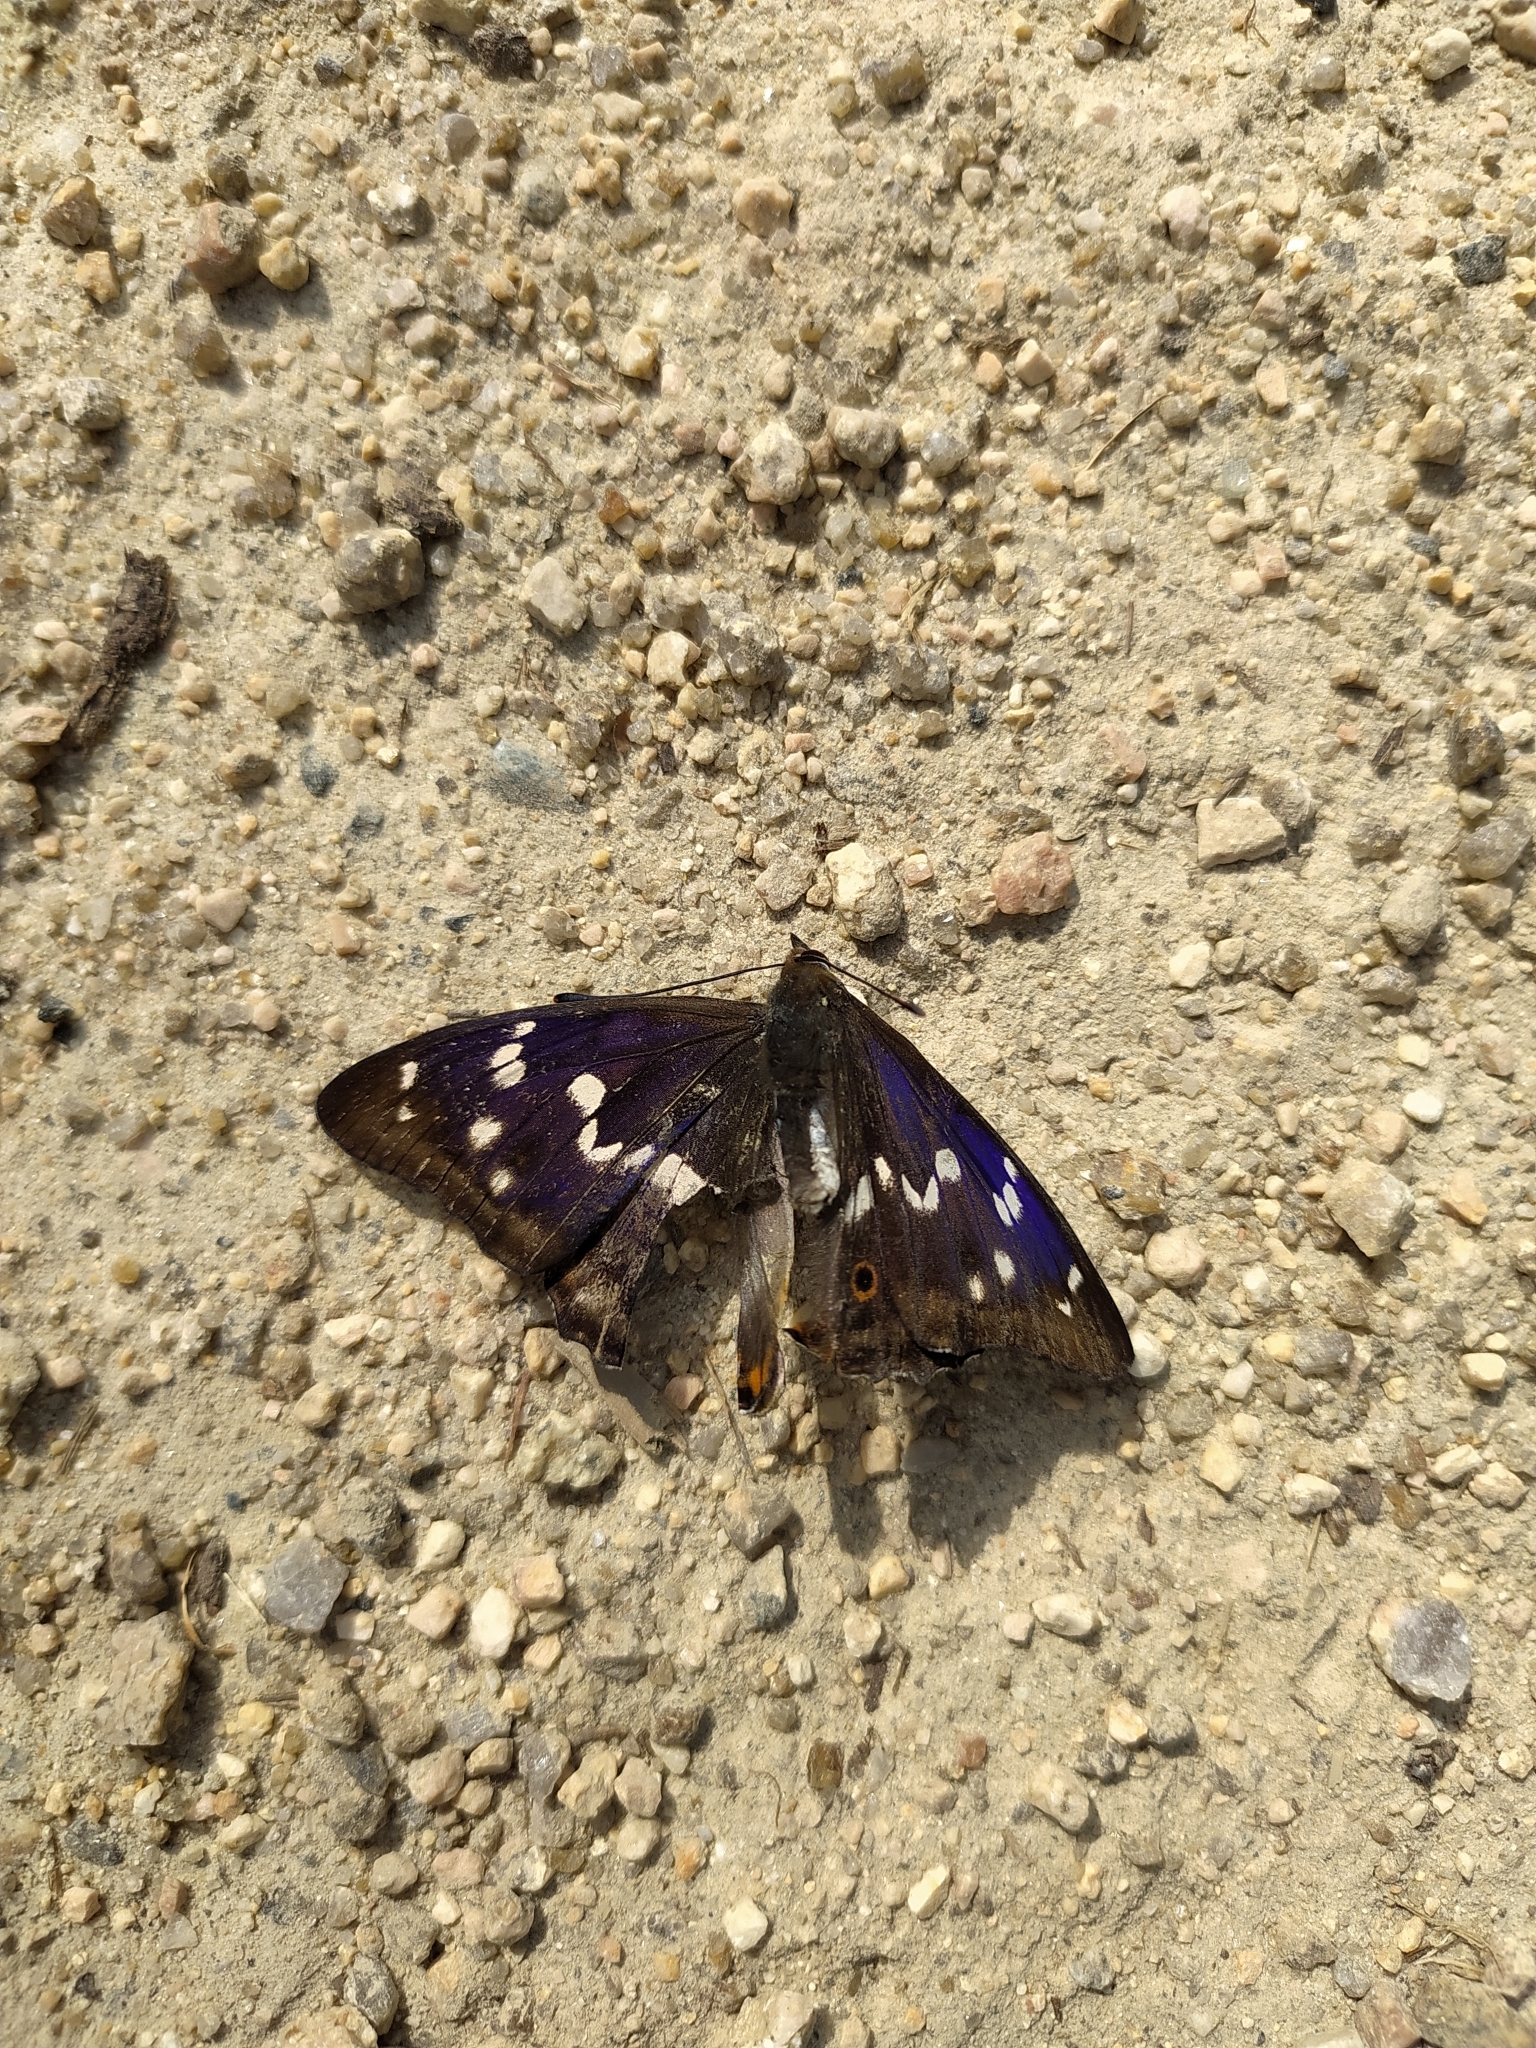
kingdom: Animalia
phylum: Arthropoda
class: Insecta
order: Lepidoptera
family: Nymphalidae
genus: Apatura
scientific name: Apatura ilia
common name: Lesser purple emperor
